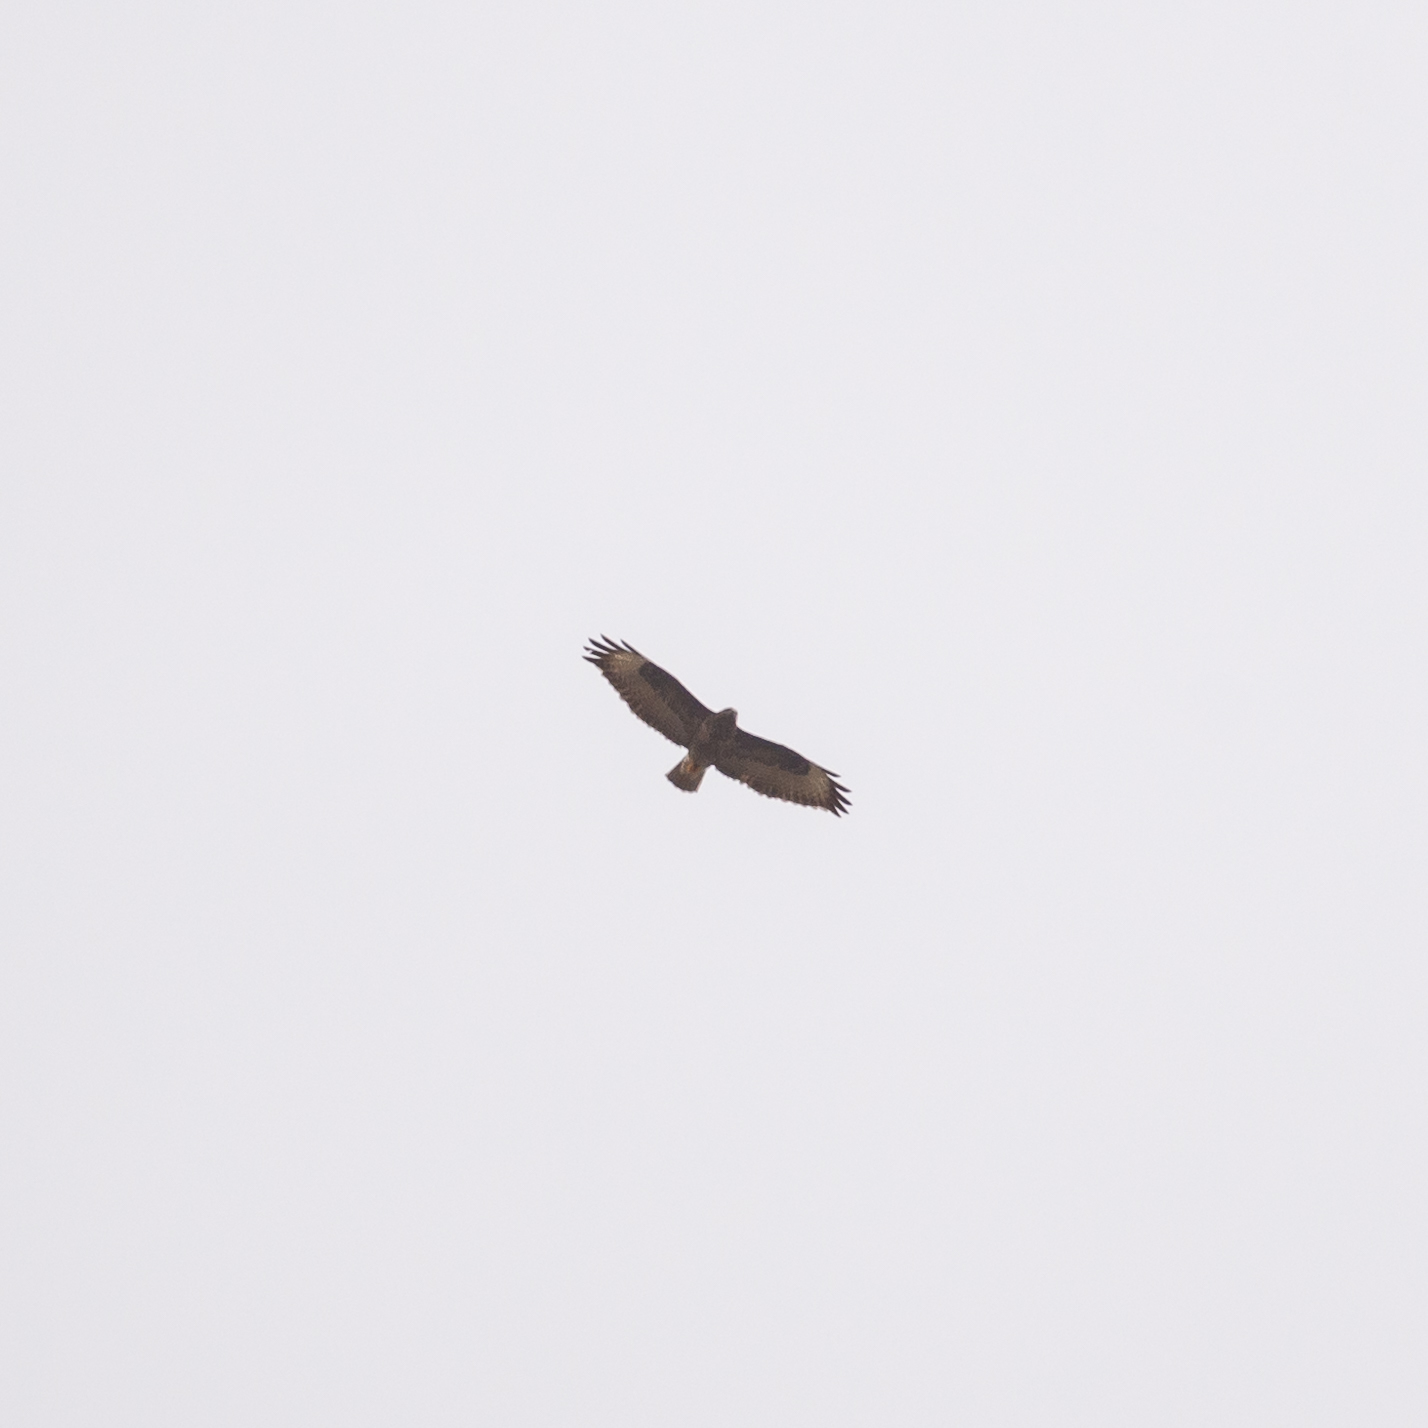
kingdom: Animalia
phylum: Chordata
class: Aves
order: Accipitriformes
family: Accipitridae
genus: Buteo
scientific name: Buteo buteo
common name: Common buzzard
